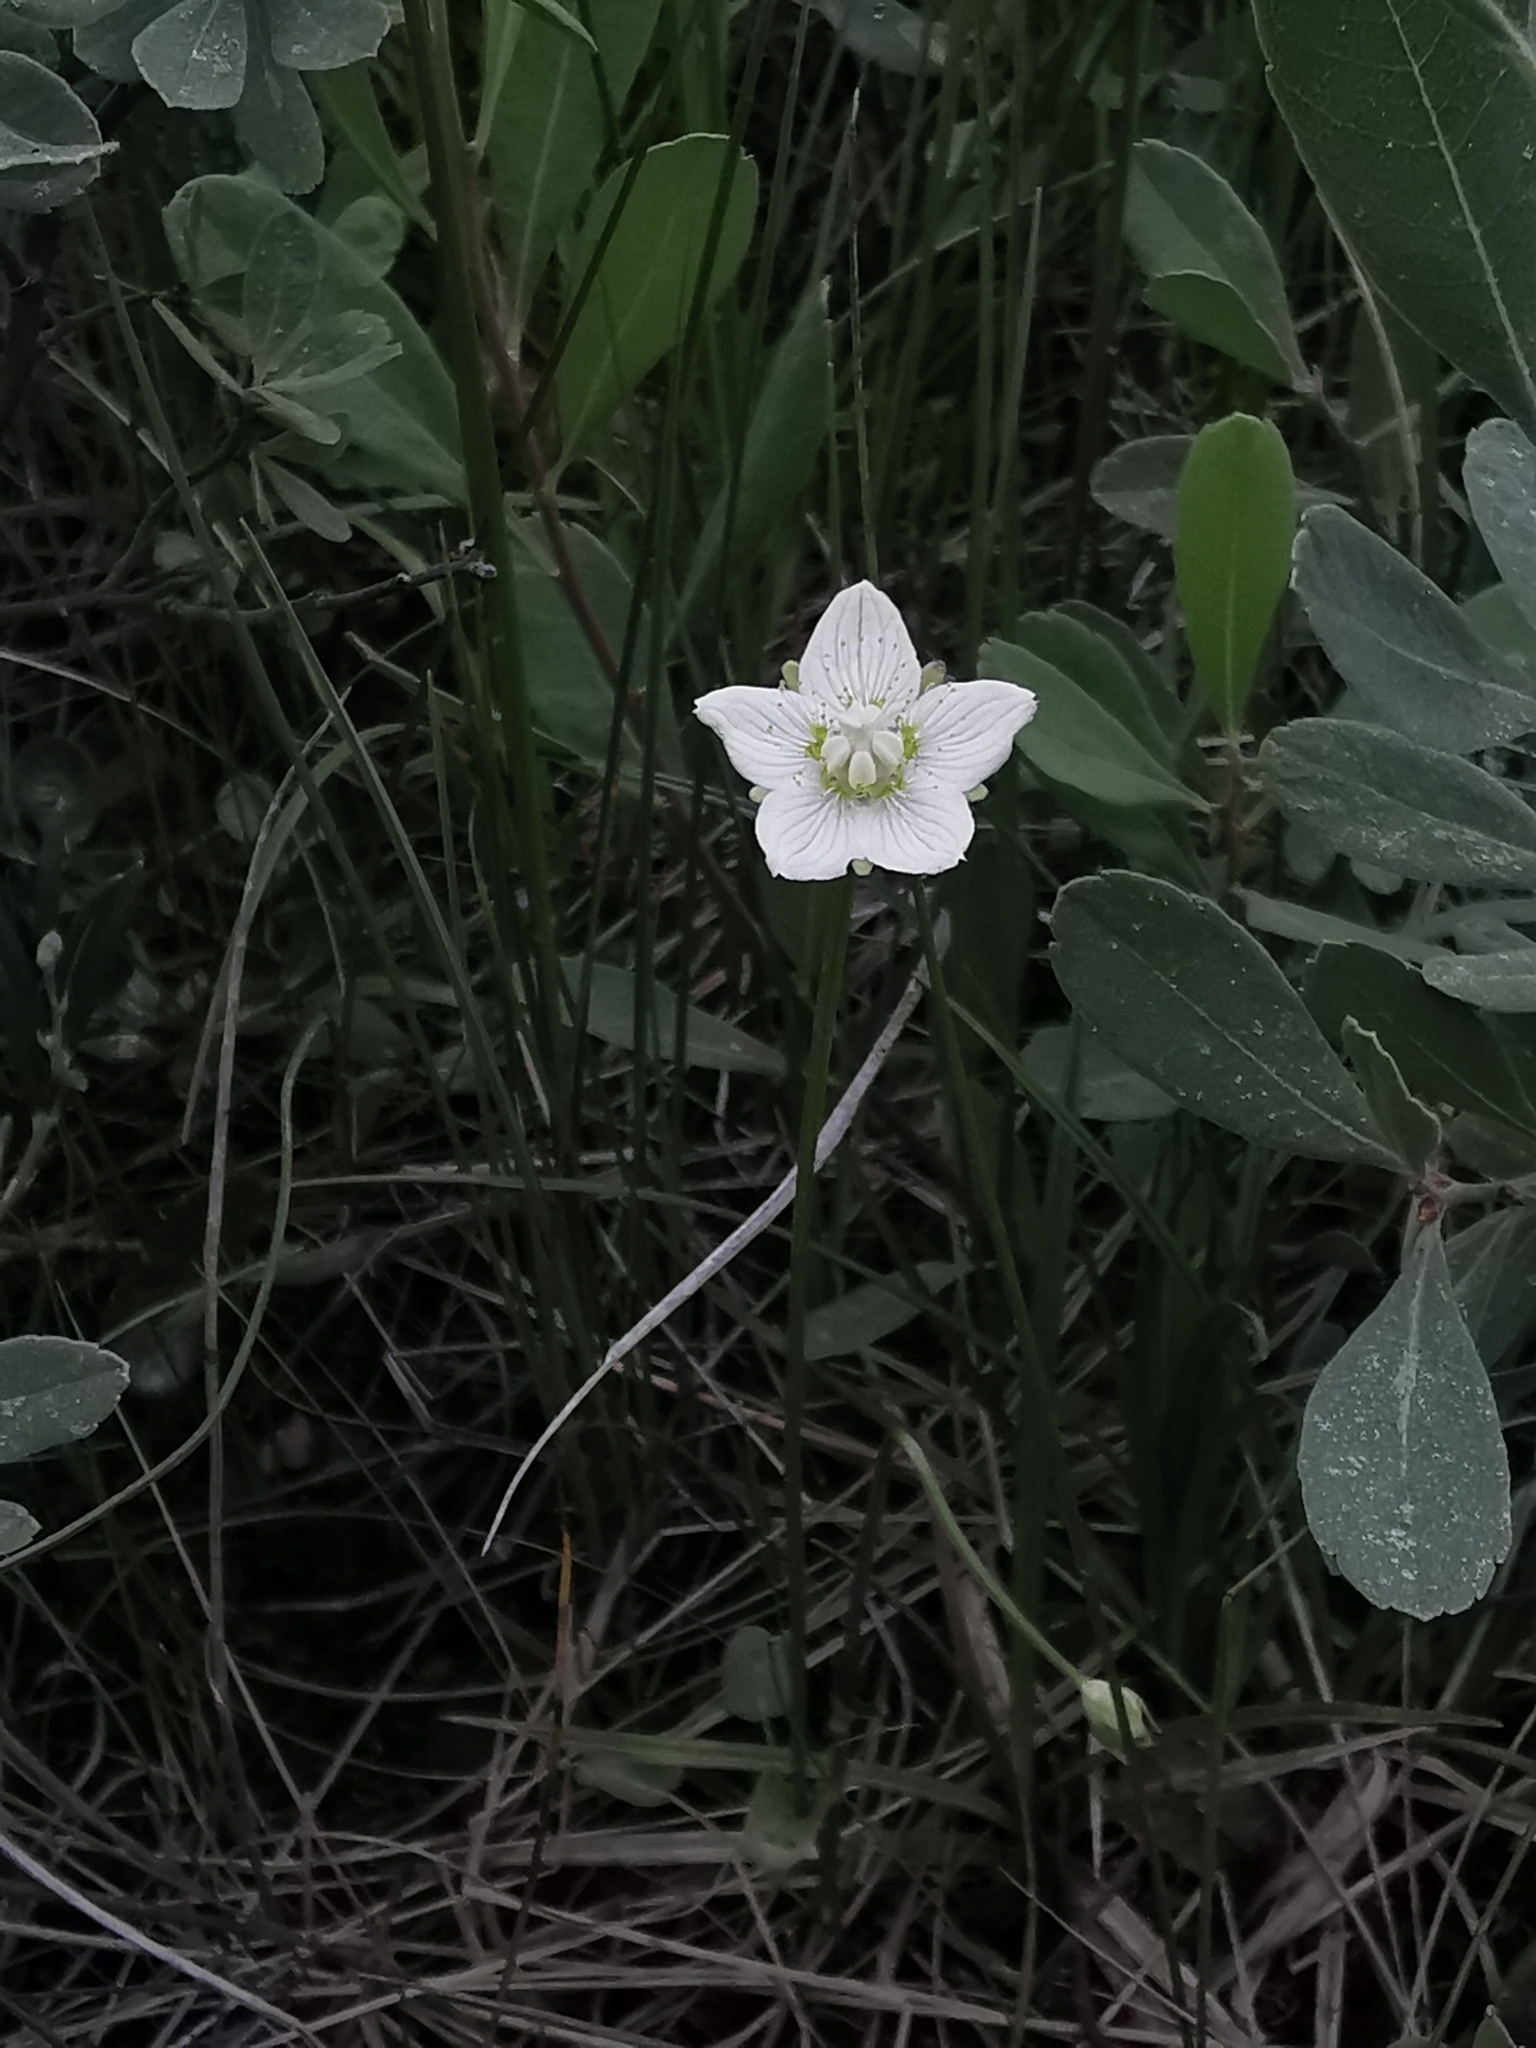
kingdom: Plantae
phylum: Tracheophyta
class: Magnoliopsida
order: Celastrales
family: Parnassiaceae
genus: Parnassia
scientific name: Parnassia palustris
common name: Grass-of-parnassus
